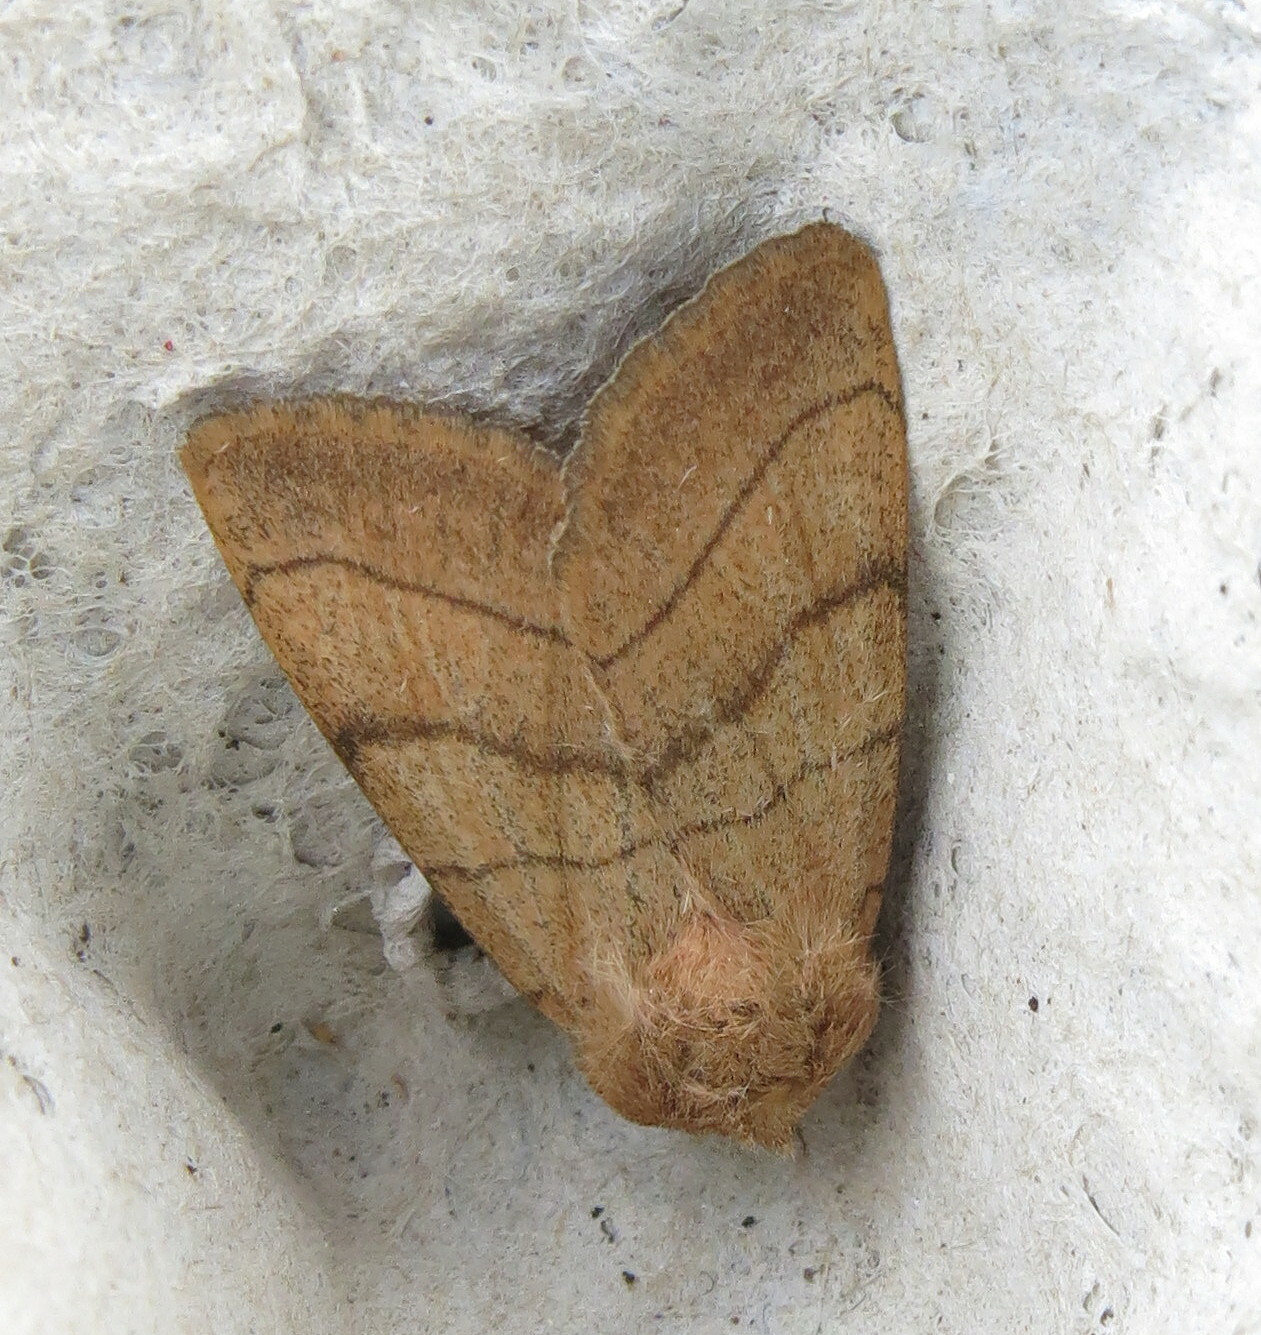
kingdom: Animalia
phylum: Arthropoda
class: Insecta
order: Lepidoptera
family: Noctuidae
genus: Charanyca
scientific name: Charanyca trigrammica
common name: Treble lines
